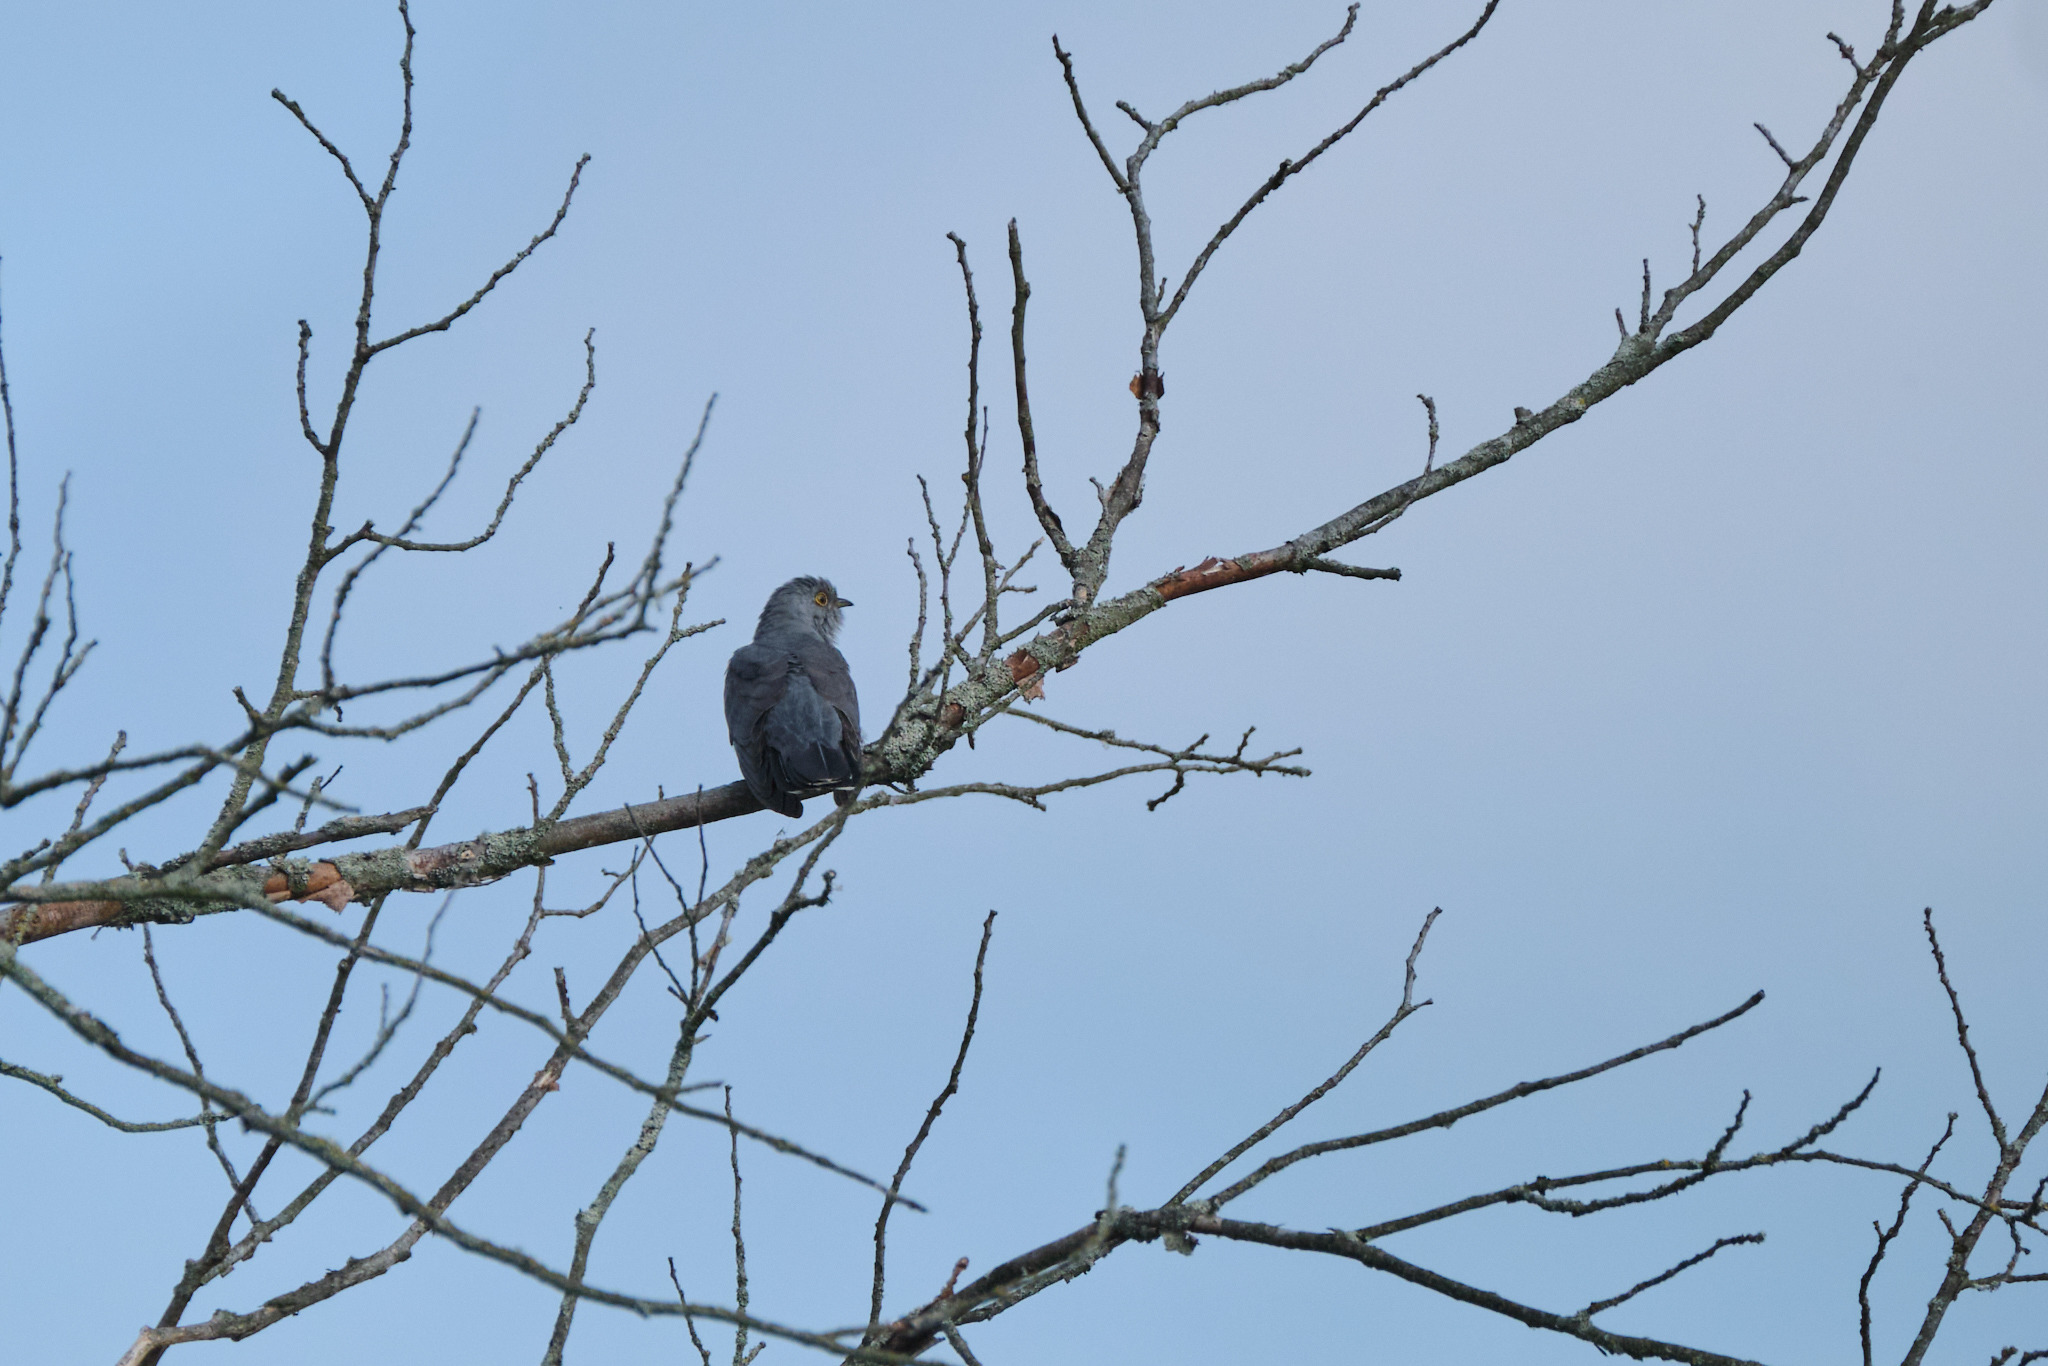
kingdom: Animalia
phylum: Chordata
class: Aves
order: Cuculiformes
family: Cuculidae
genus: Cuculus
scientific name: Cuculus canorus
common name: Common cuckoo
